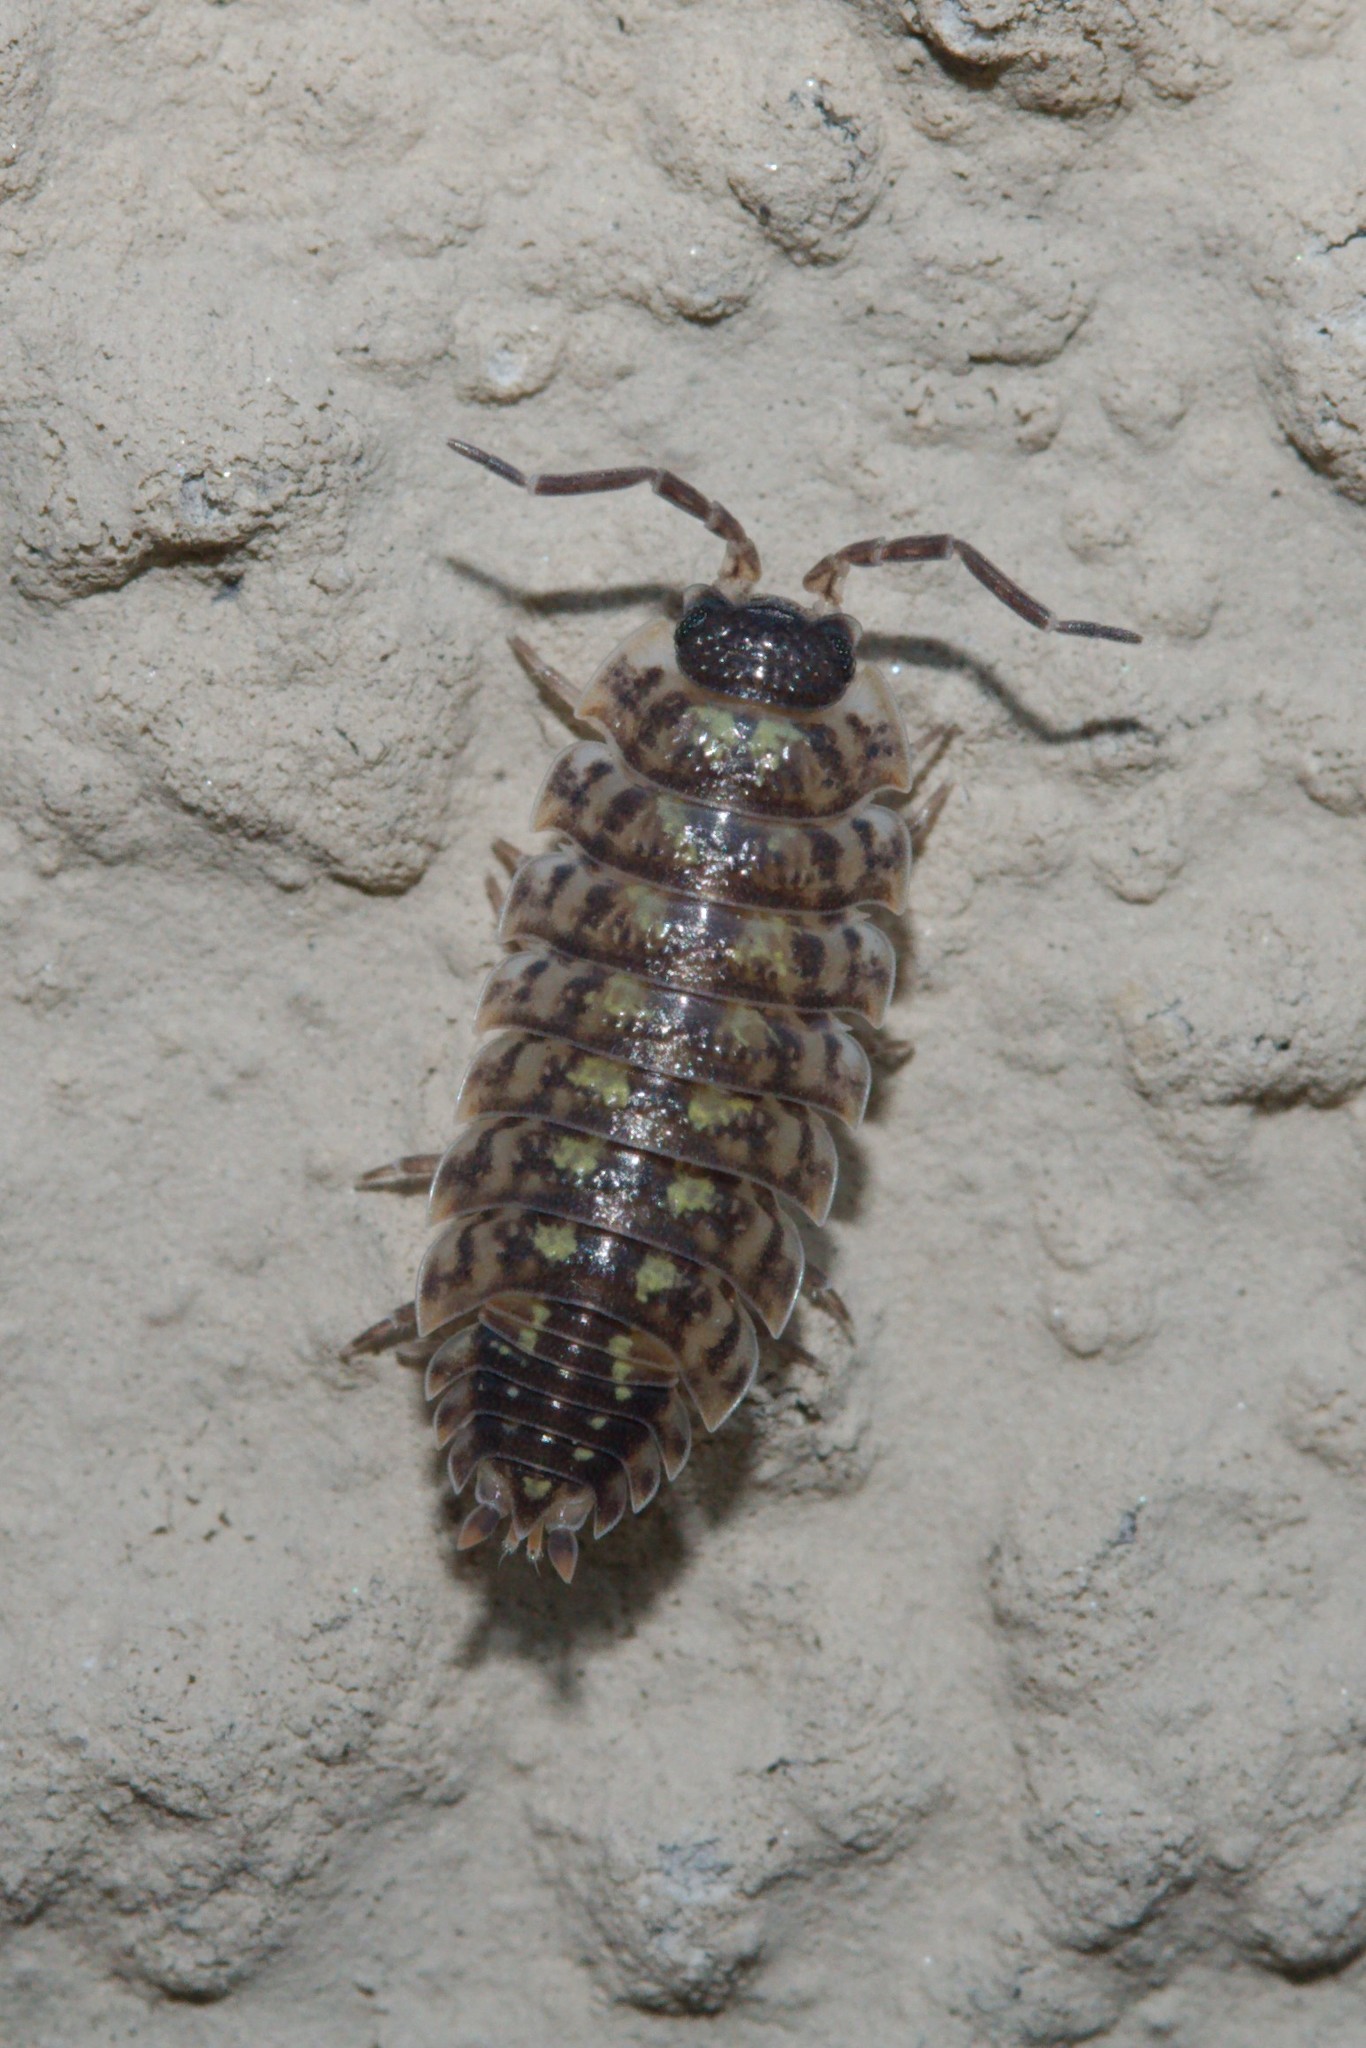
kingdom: Animalia
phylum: Arthropoda
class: Malacostraca
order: Isopoda
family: Porcellionidae
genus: Porcellio
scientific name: Porcellio spinicornis
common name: Painted woodlouse
